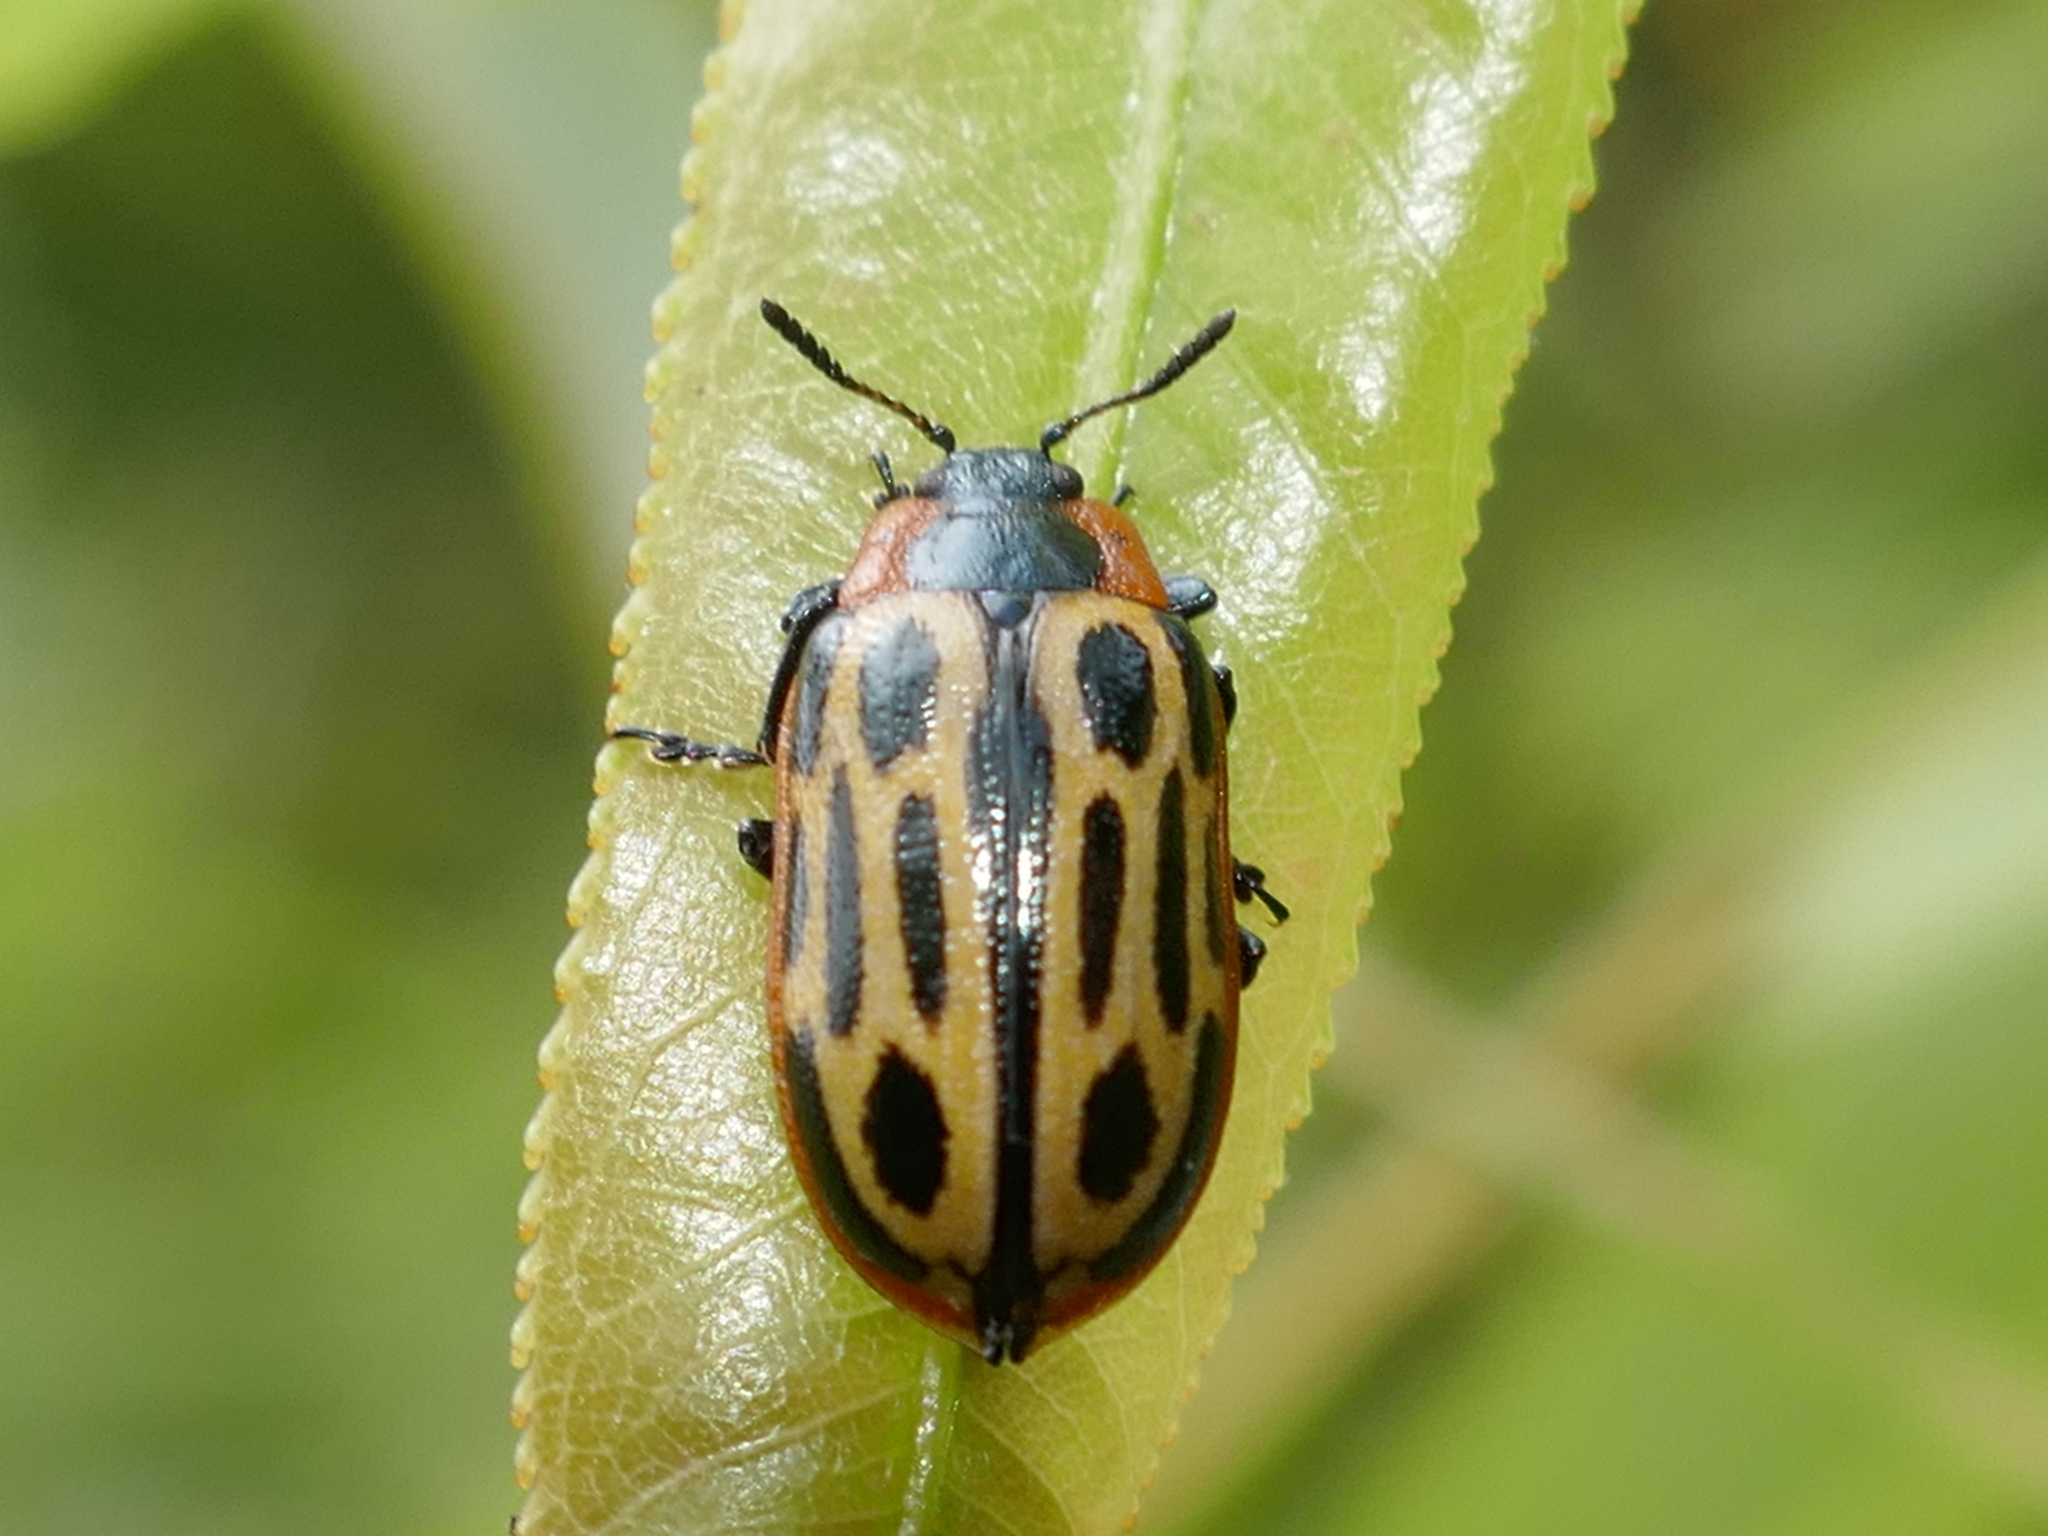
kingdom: Animalia
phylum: Arthropoda
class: Insecta
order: Coleoptera
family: Chrysomelidae
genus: Aethiopocassis
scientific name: Aethiopocassis scripta
